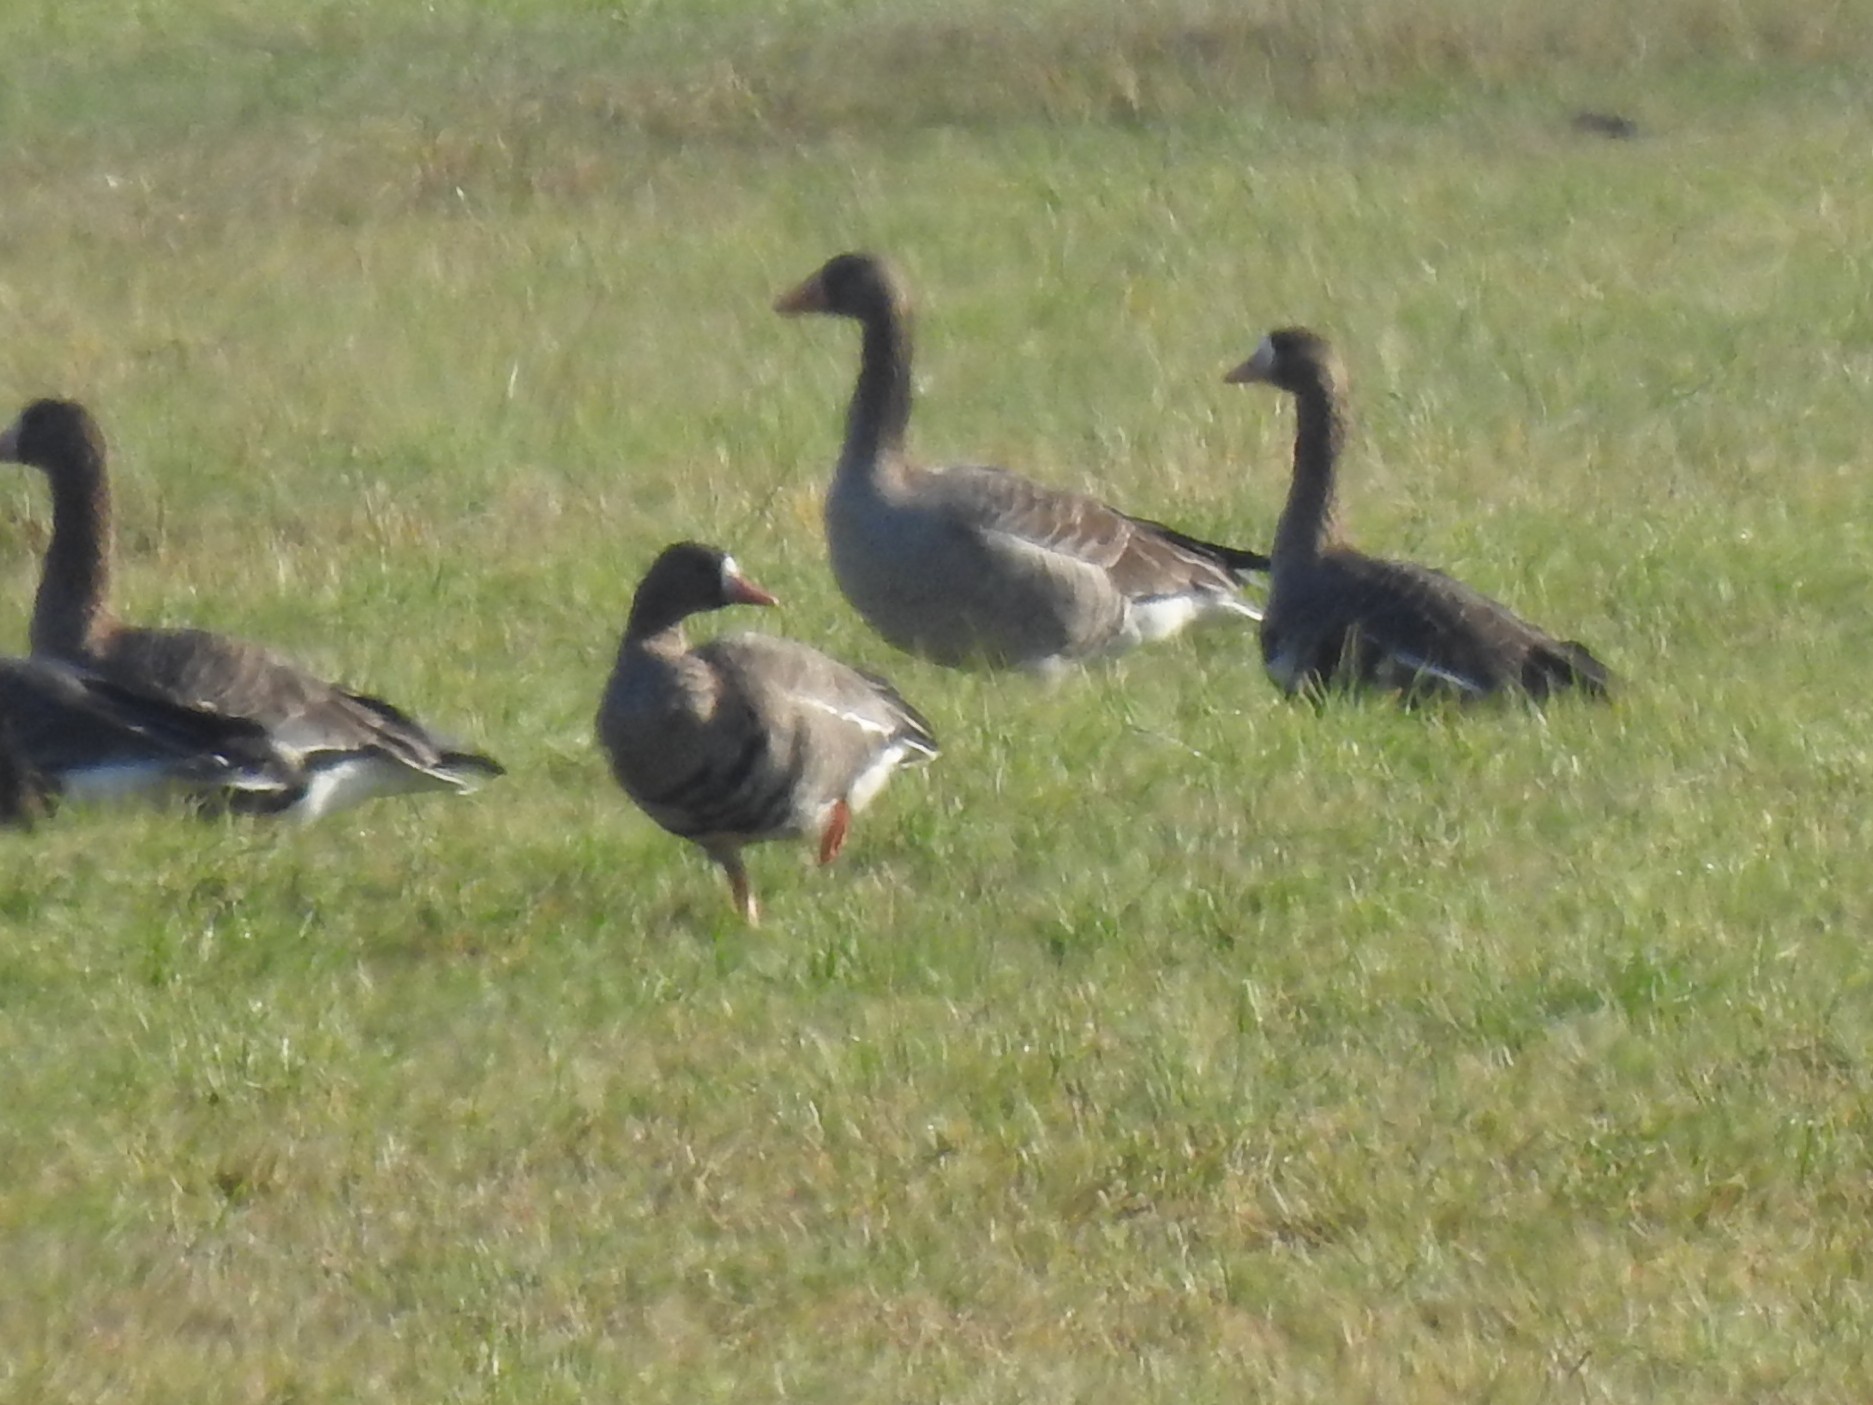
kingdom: Animalia
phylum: Chordata
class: Aves
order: Anseriformes
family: Anatidae
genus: Anser
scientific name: Anser albifrons
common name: Greater white-fronted goose
